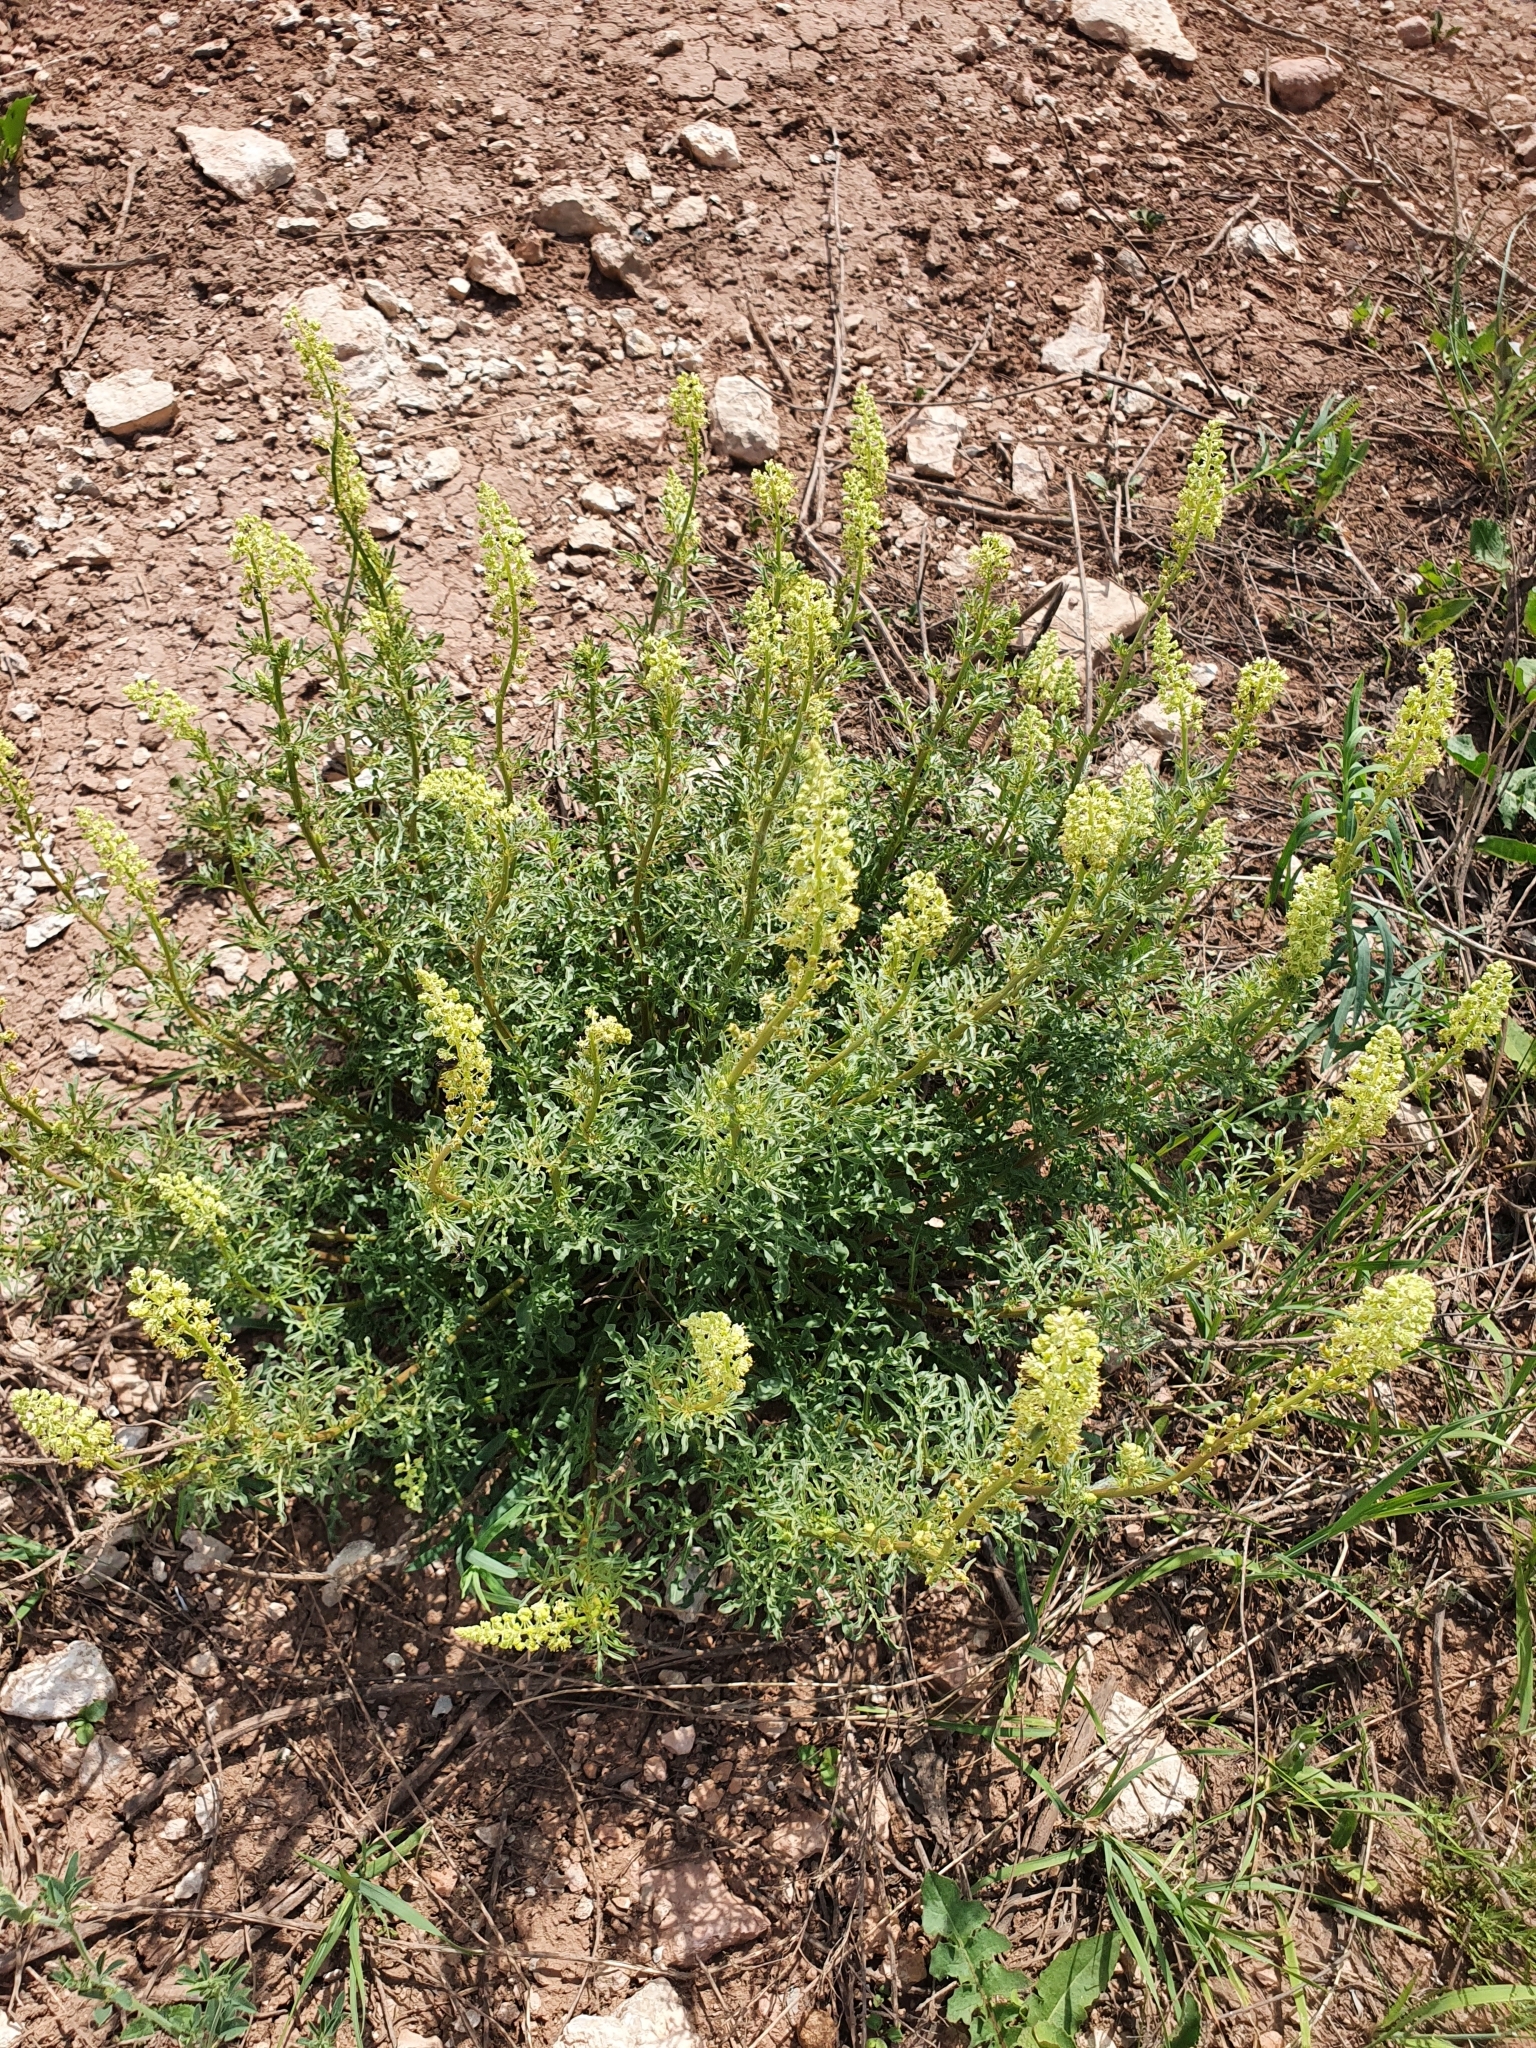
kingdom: Plantae
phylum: Tracheophyta
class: Magnoliopsida
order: Brassicales
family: Resedaceae
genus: Reseda
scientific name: Reseda lutea
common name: Wild mignonette
